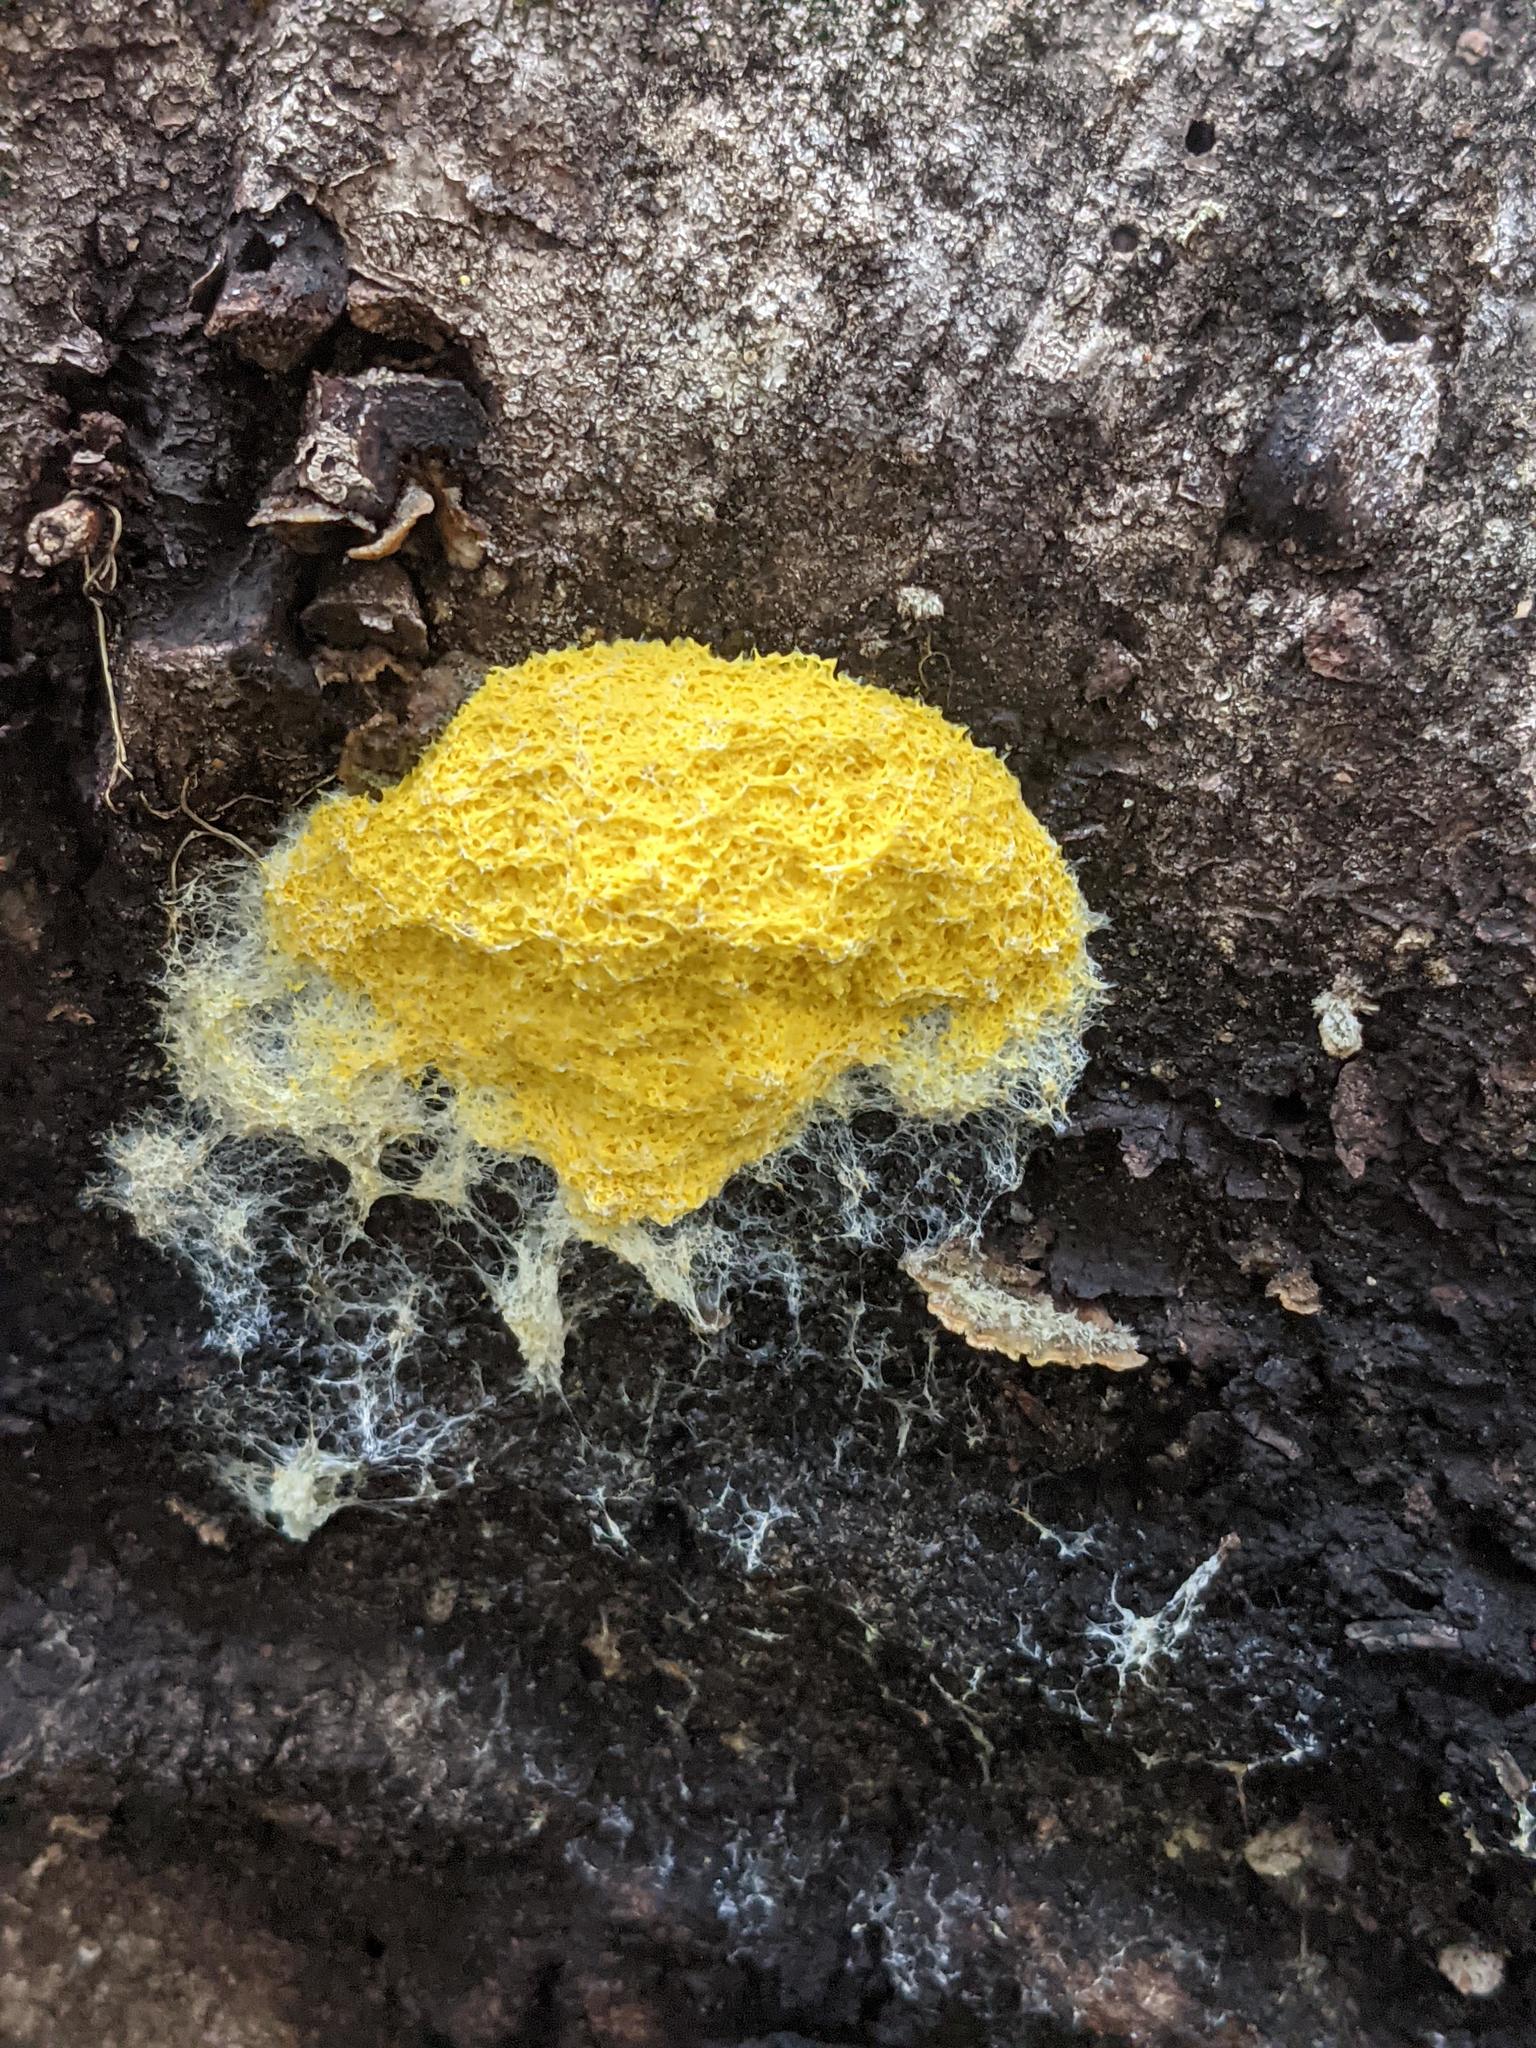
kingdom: Protozoa
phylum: Mycetozoa
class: Myxomycetes
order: Physarales
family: Physaraceae
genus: Fuligo
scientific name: Fuligo septica
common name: Dog vomit slime mold
